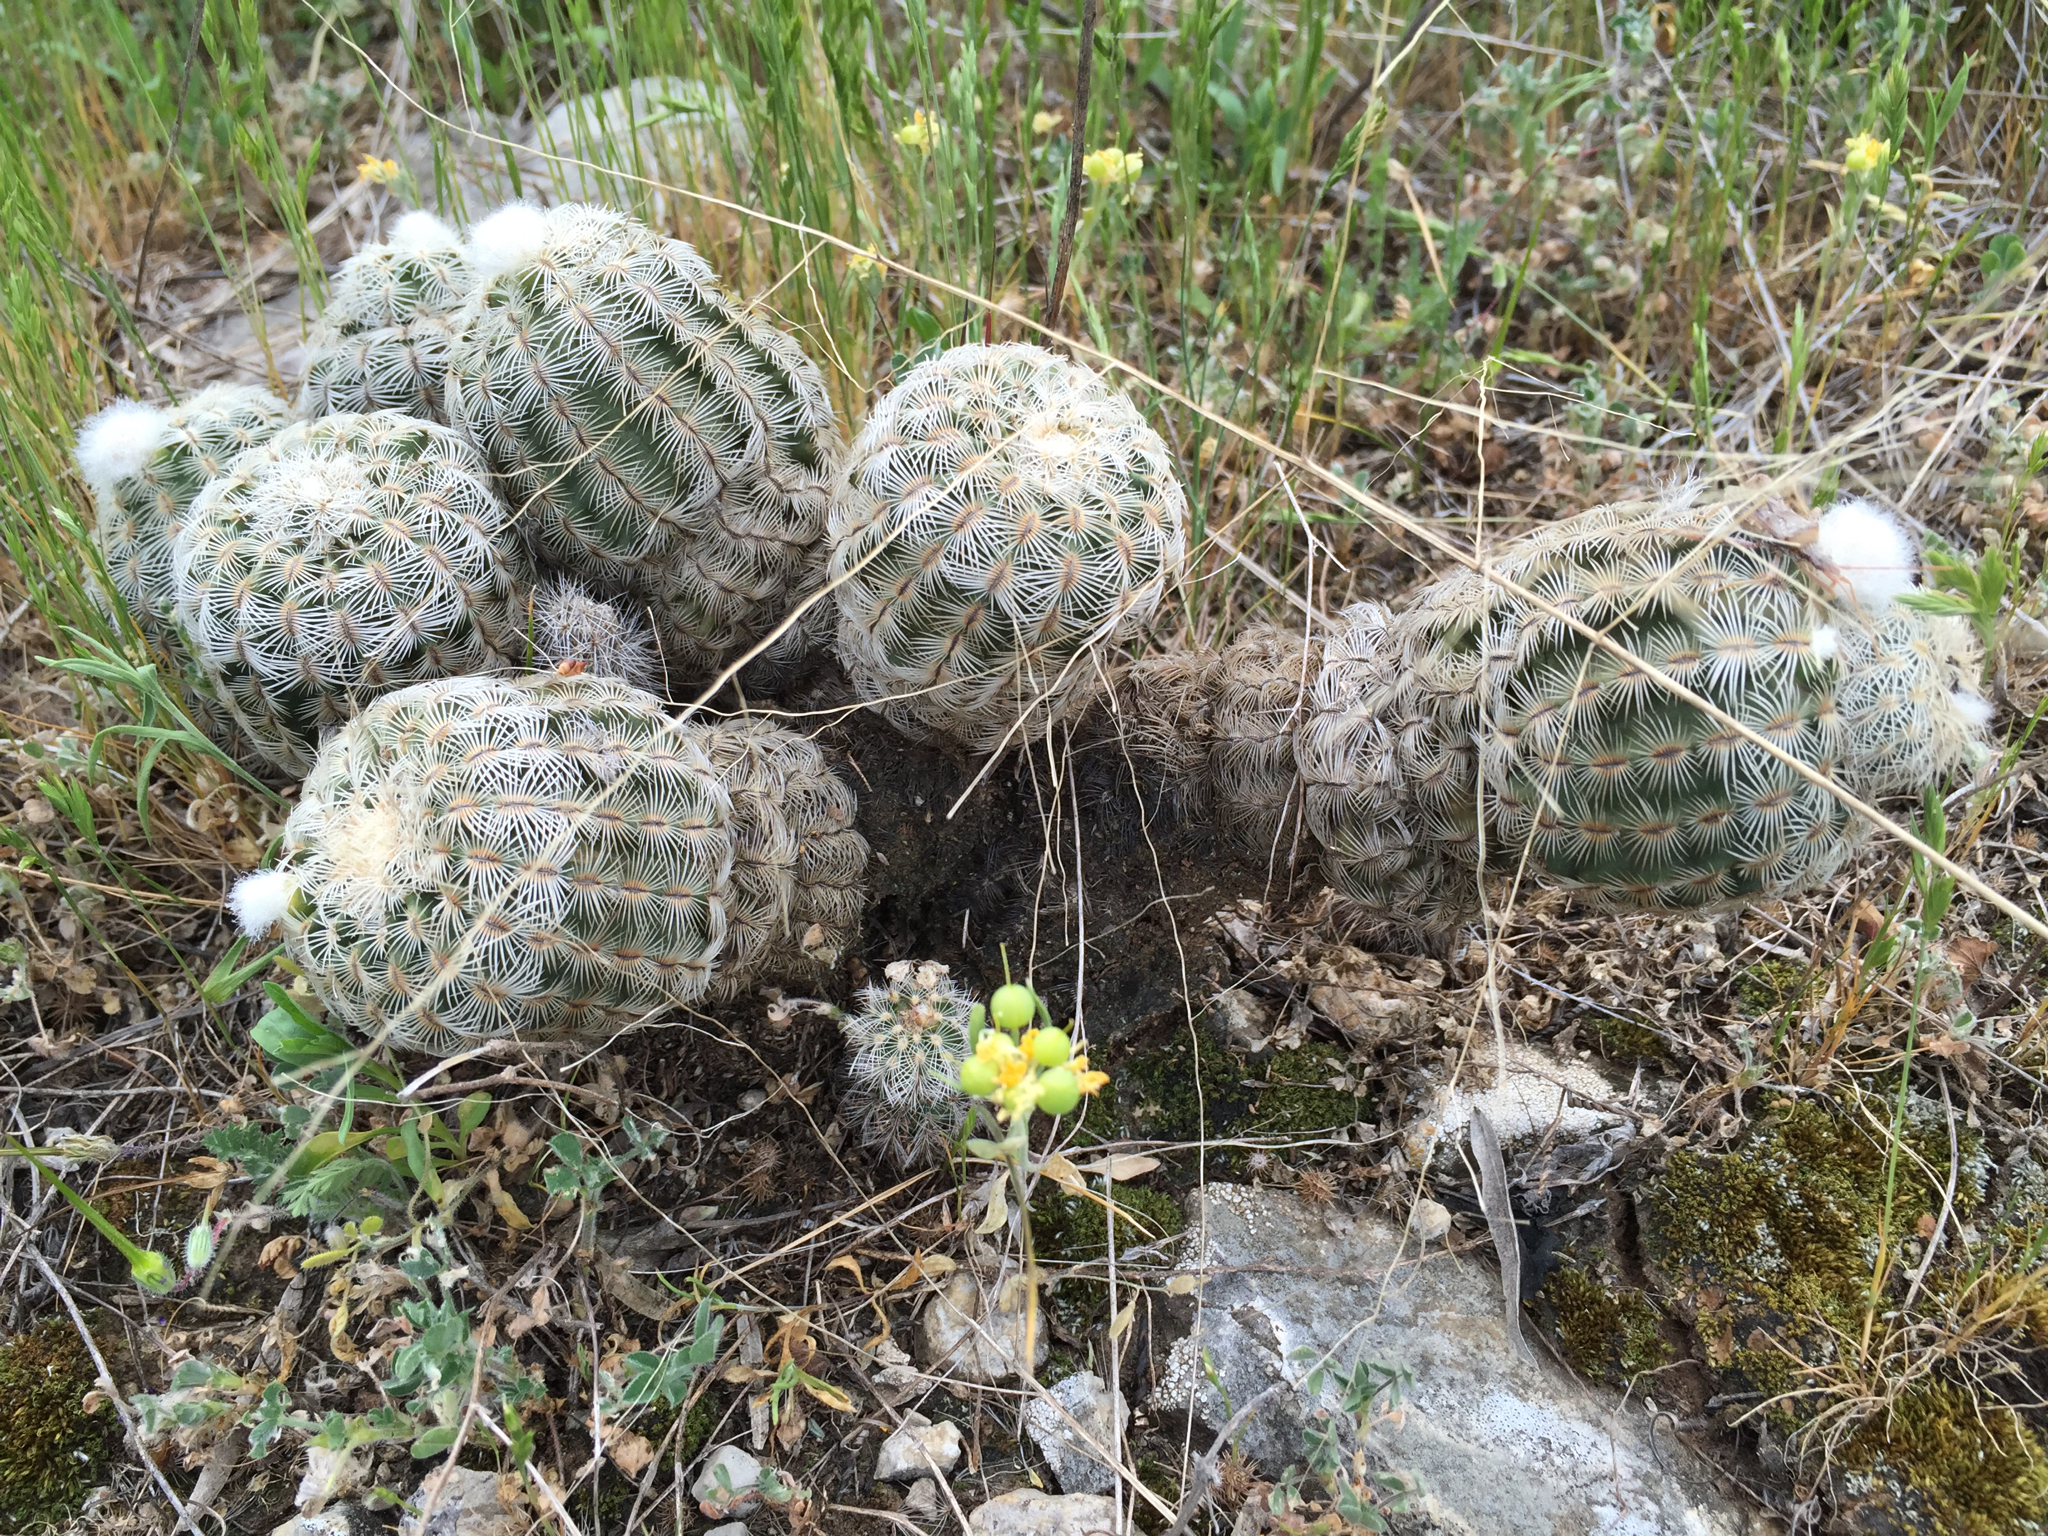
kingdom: Plantae
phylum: Tracheophyta
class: Magnoliopsida
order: Caryophyllales
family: Cactaceae
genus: Echinocereus
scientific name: Echinocereus reichenbachii
